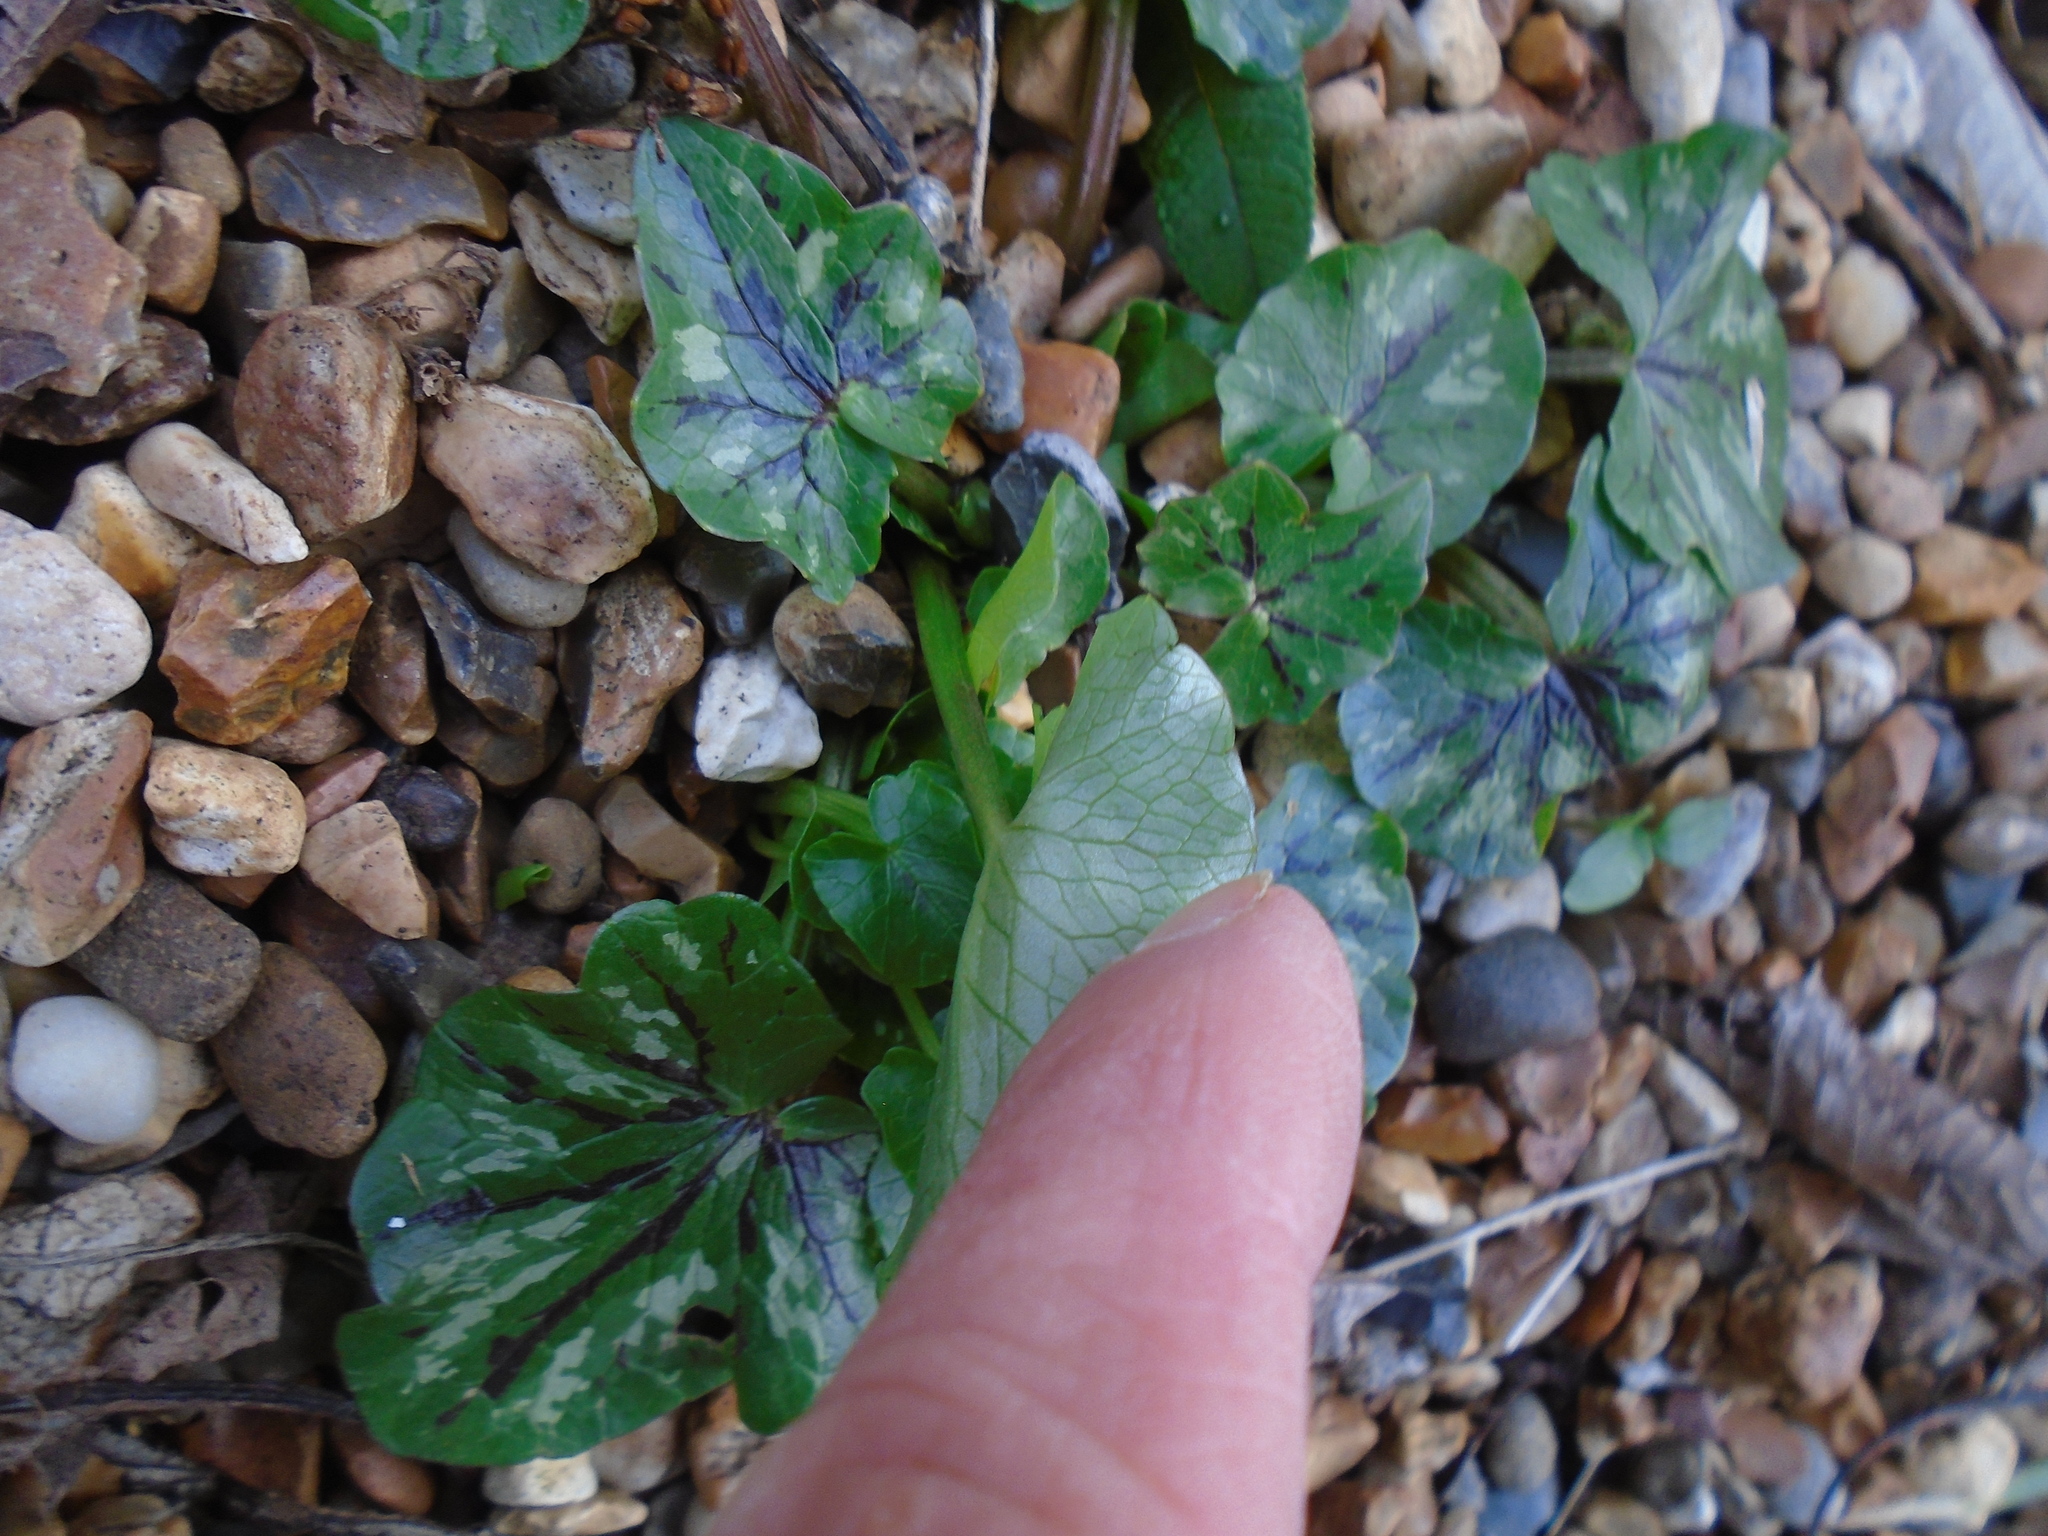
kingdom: Plantae
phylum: Tracheophyta
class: Magnoliopsida
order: Ranunculales
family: Ranunculaceae
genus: Ficaria
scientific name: Ficaria verna
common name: Lesser celandine
